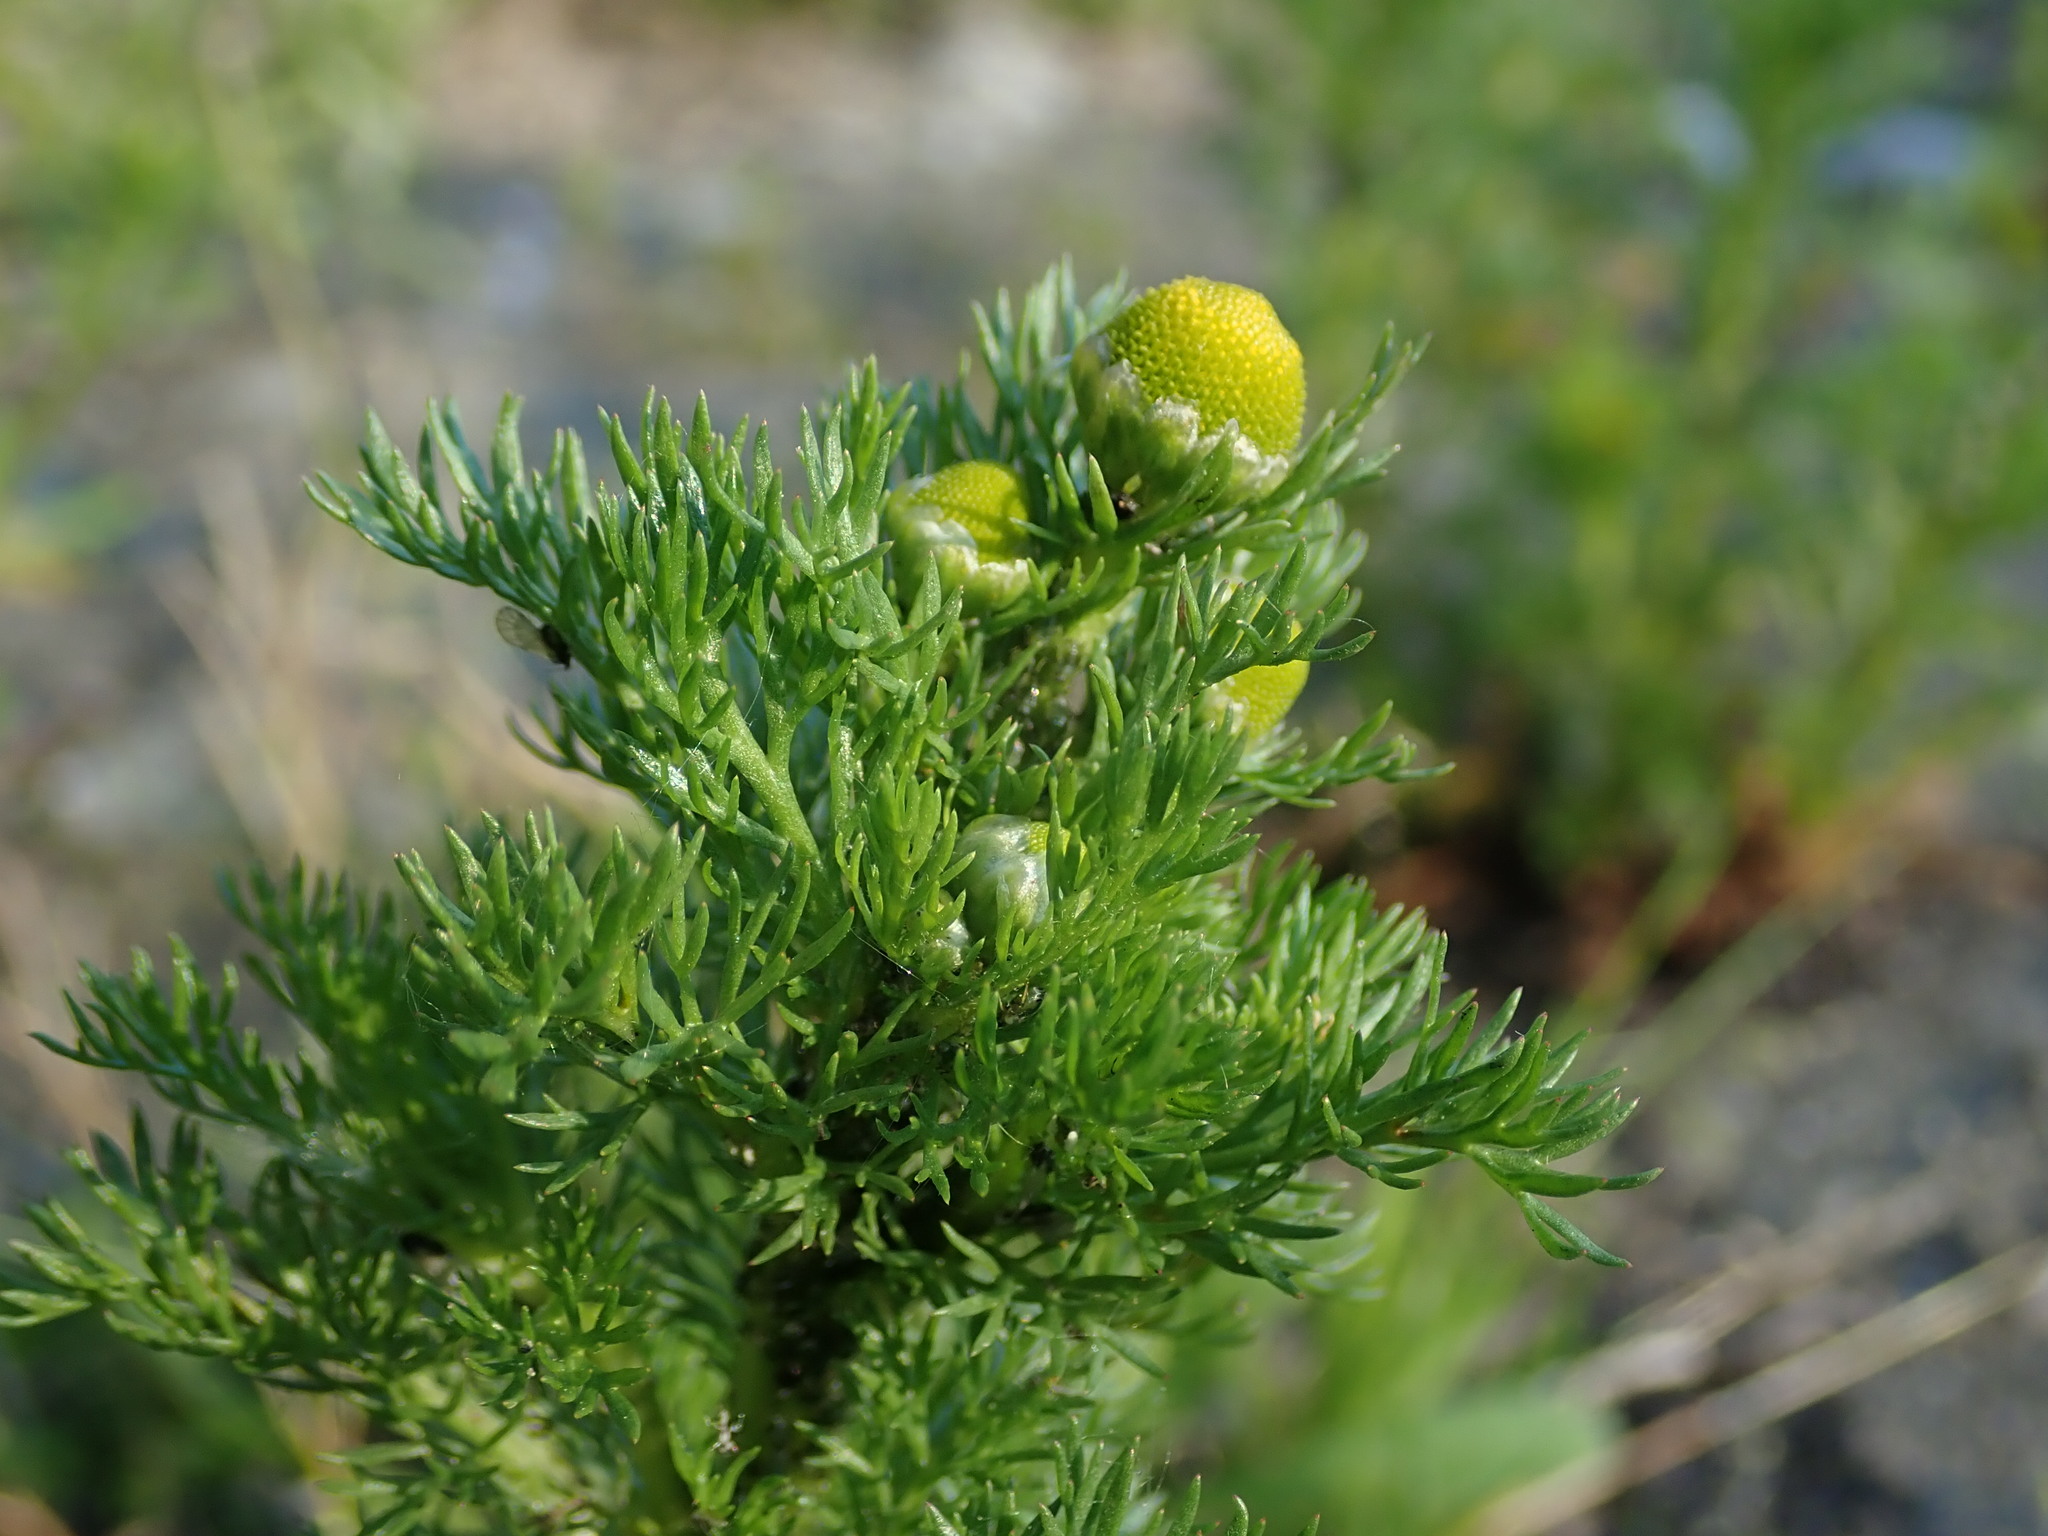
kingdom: Plantae
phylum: Tracheophyta
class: Magnoliopsida
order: Asterales
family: Asteraceae
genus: Matricaria
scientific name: Matricaria discoidea
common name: Disc mayweed
